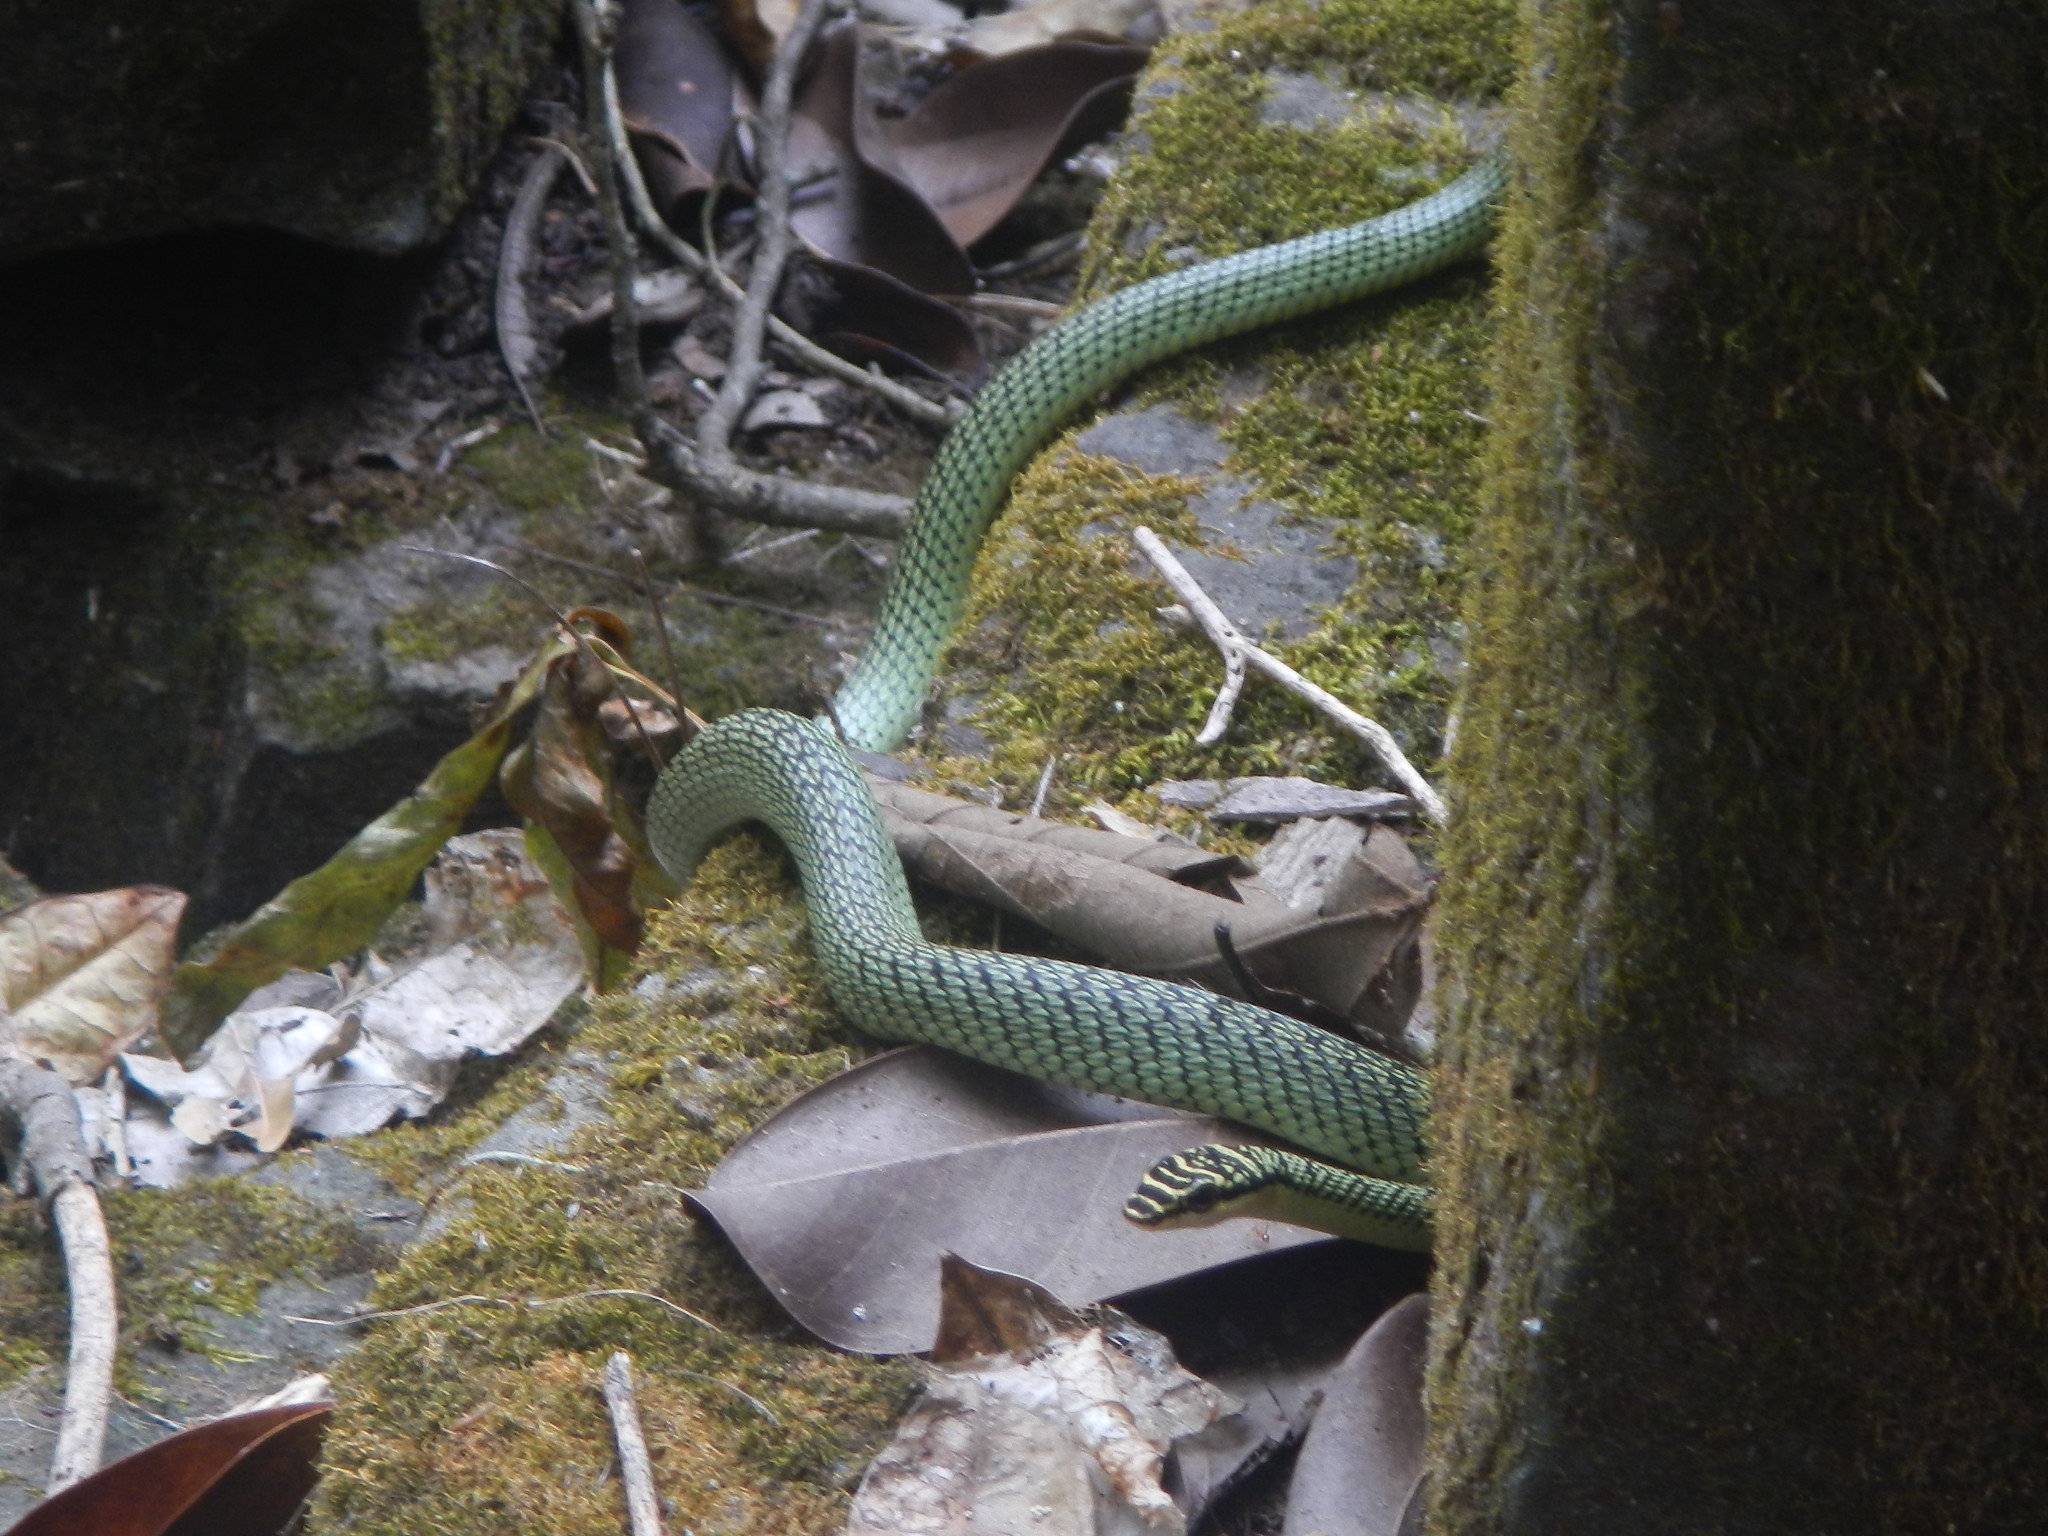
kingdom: Animalia
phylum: Chordata
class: Squamata
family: Colubridae
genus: Chrysopelea
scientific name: Chrysopelea ornata
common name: Golden flying snake
